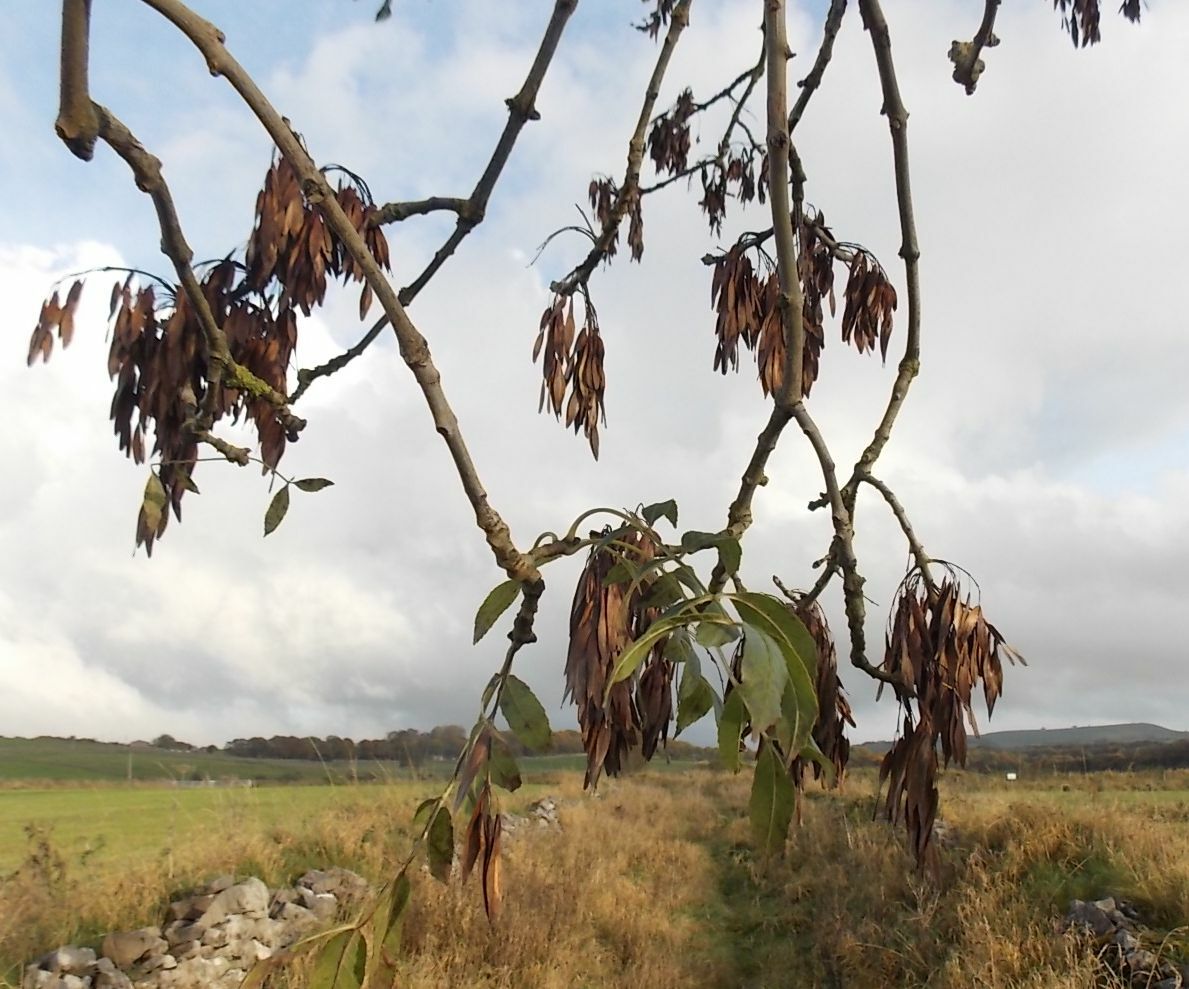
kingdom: Plantae
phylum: Tracheophyta
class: Magnoliopsida
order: Lamiales
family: Oleaceae
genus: Fraxinus
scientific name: Fraxinus excelsior
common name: European ash
